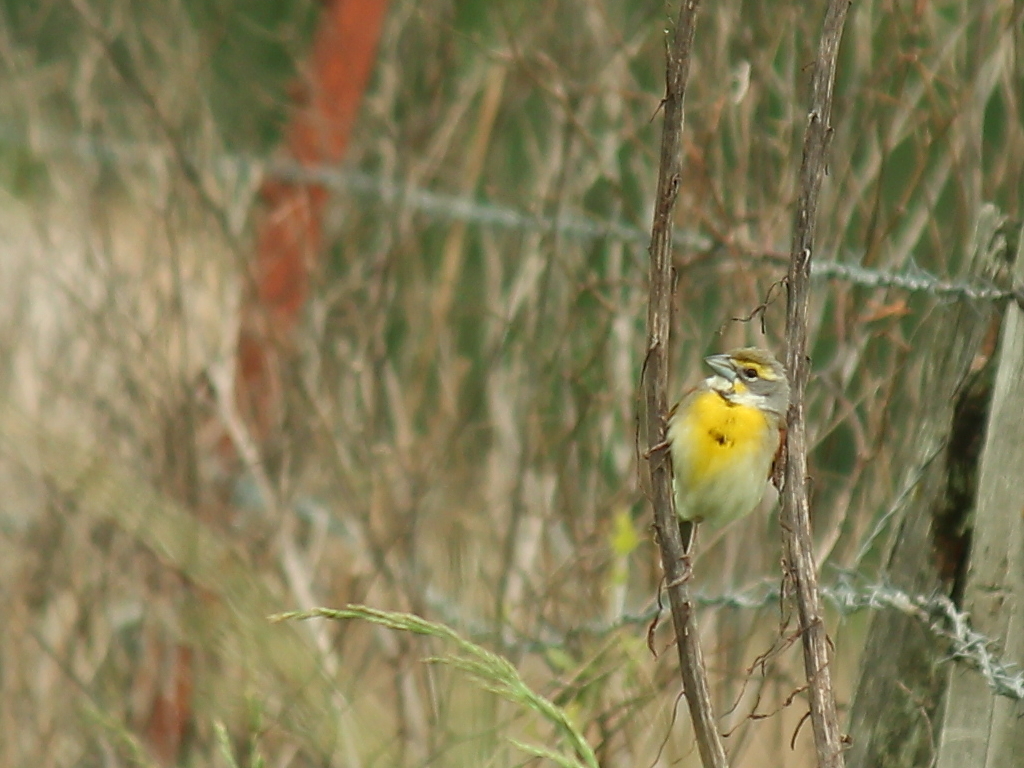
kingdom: Animalia
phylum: Chordata
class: Aves
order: Passeriformes
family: Cardinalidae
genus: Spiza
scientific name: Spiza americana
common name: Dickcissel
